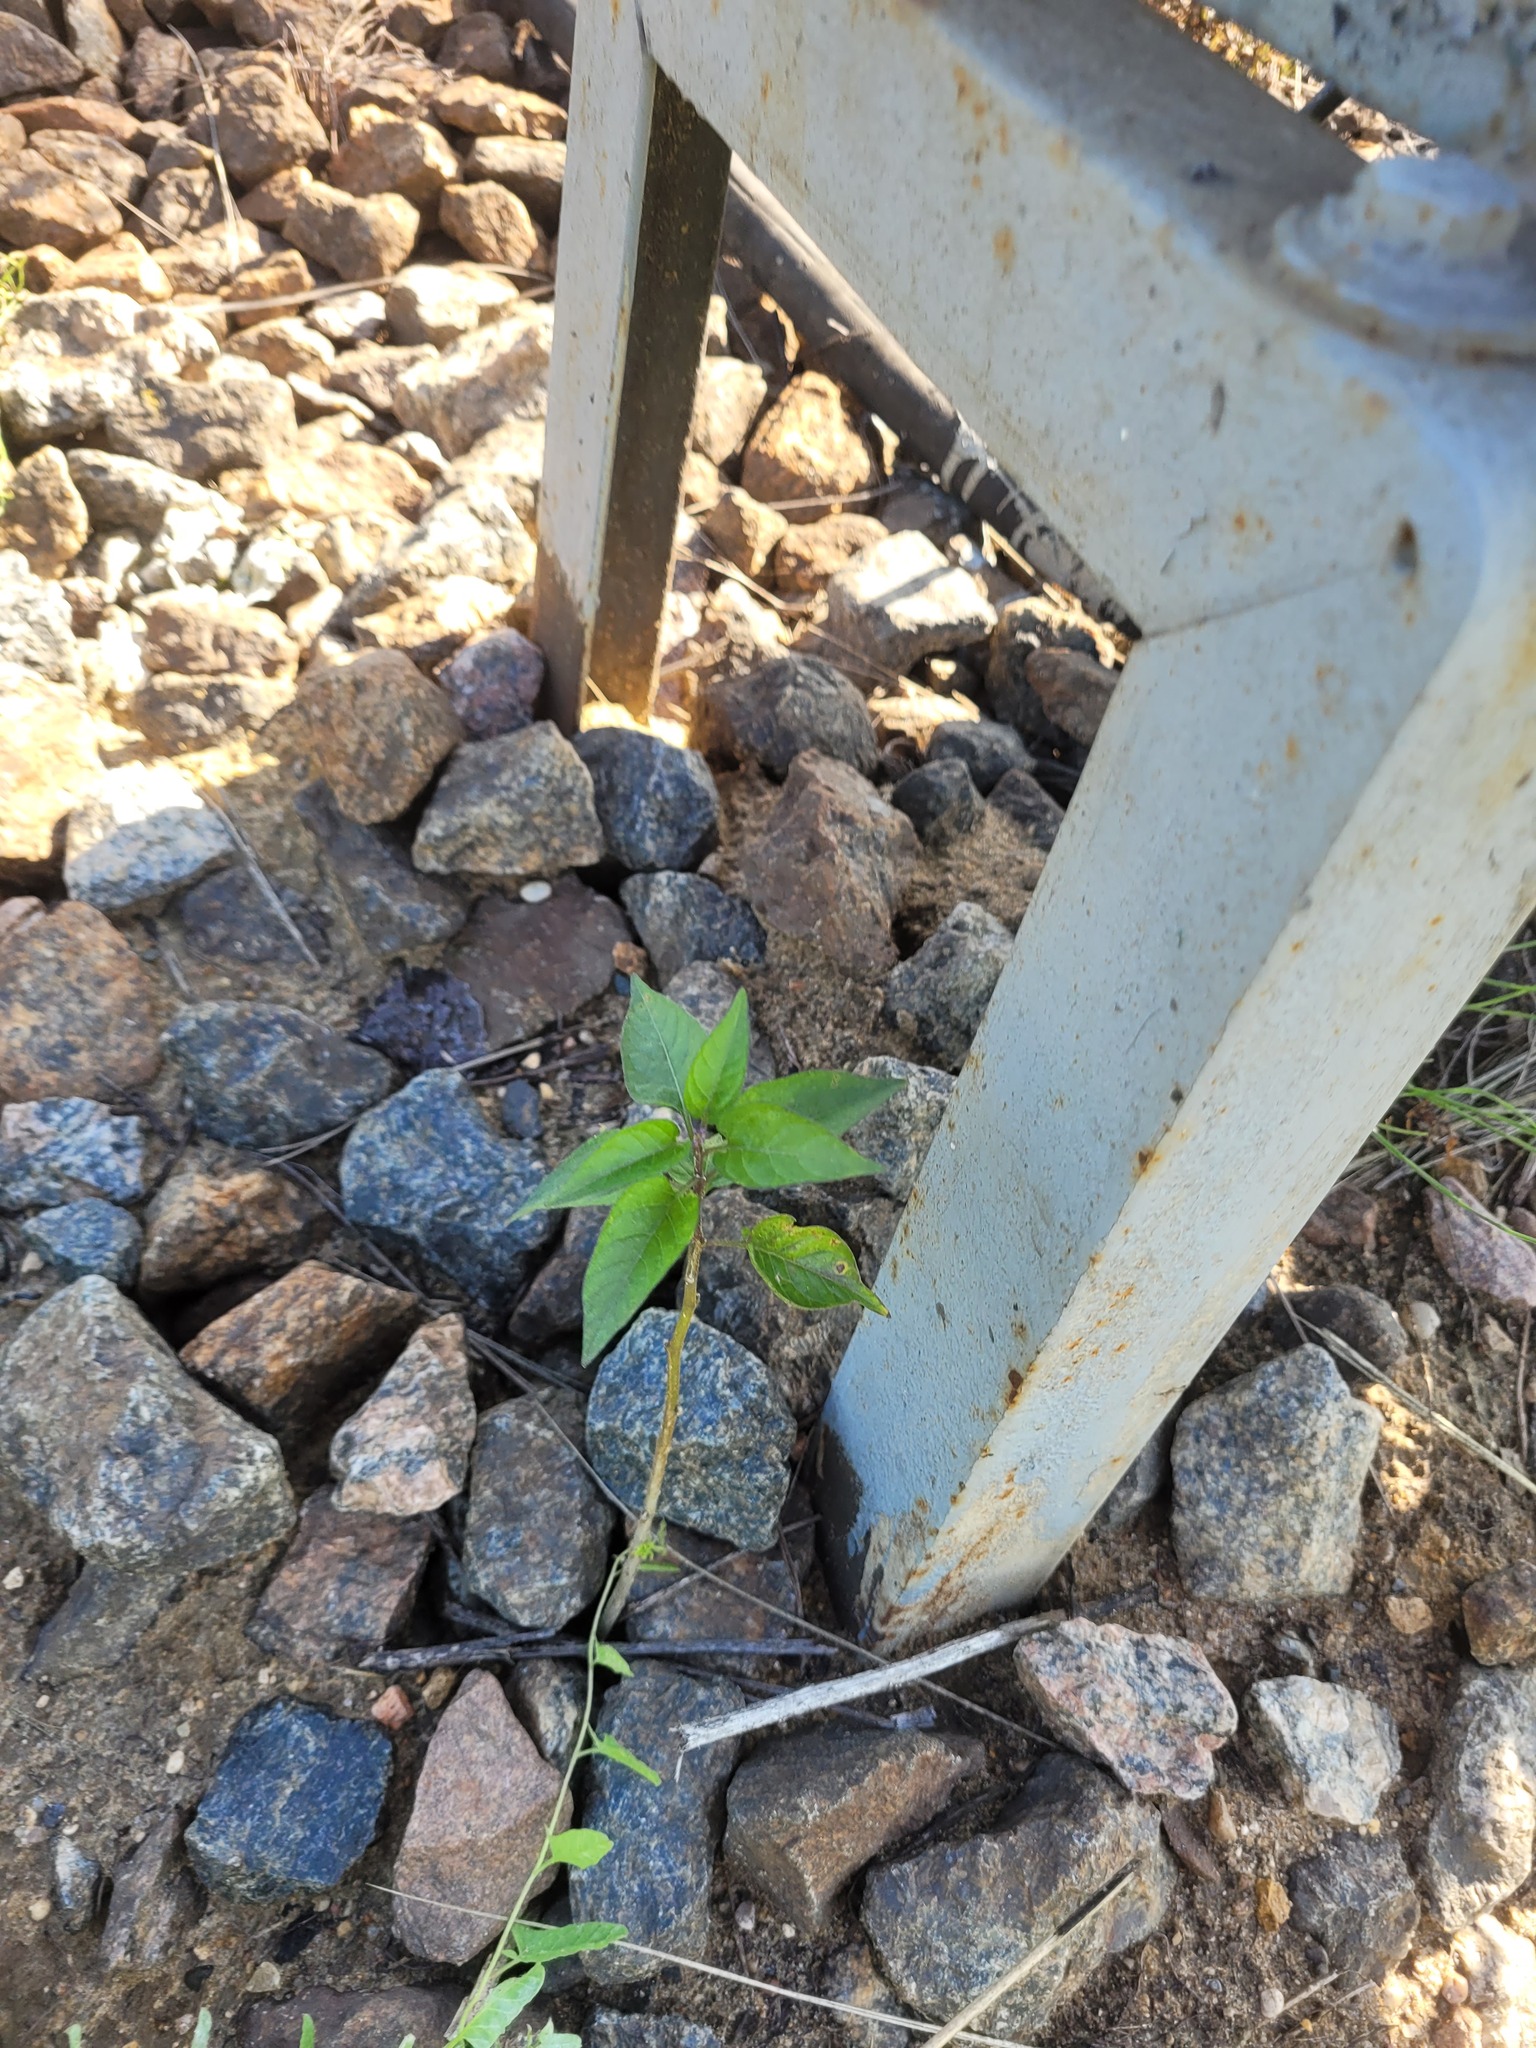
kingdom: Plantae
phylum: Tracheophyta
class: Magnoliopsida
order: Solanales
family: Solanaceae
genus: Solanum
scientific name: Solanum dulcamara
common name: Climbing nightshade
